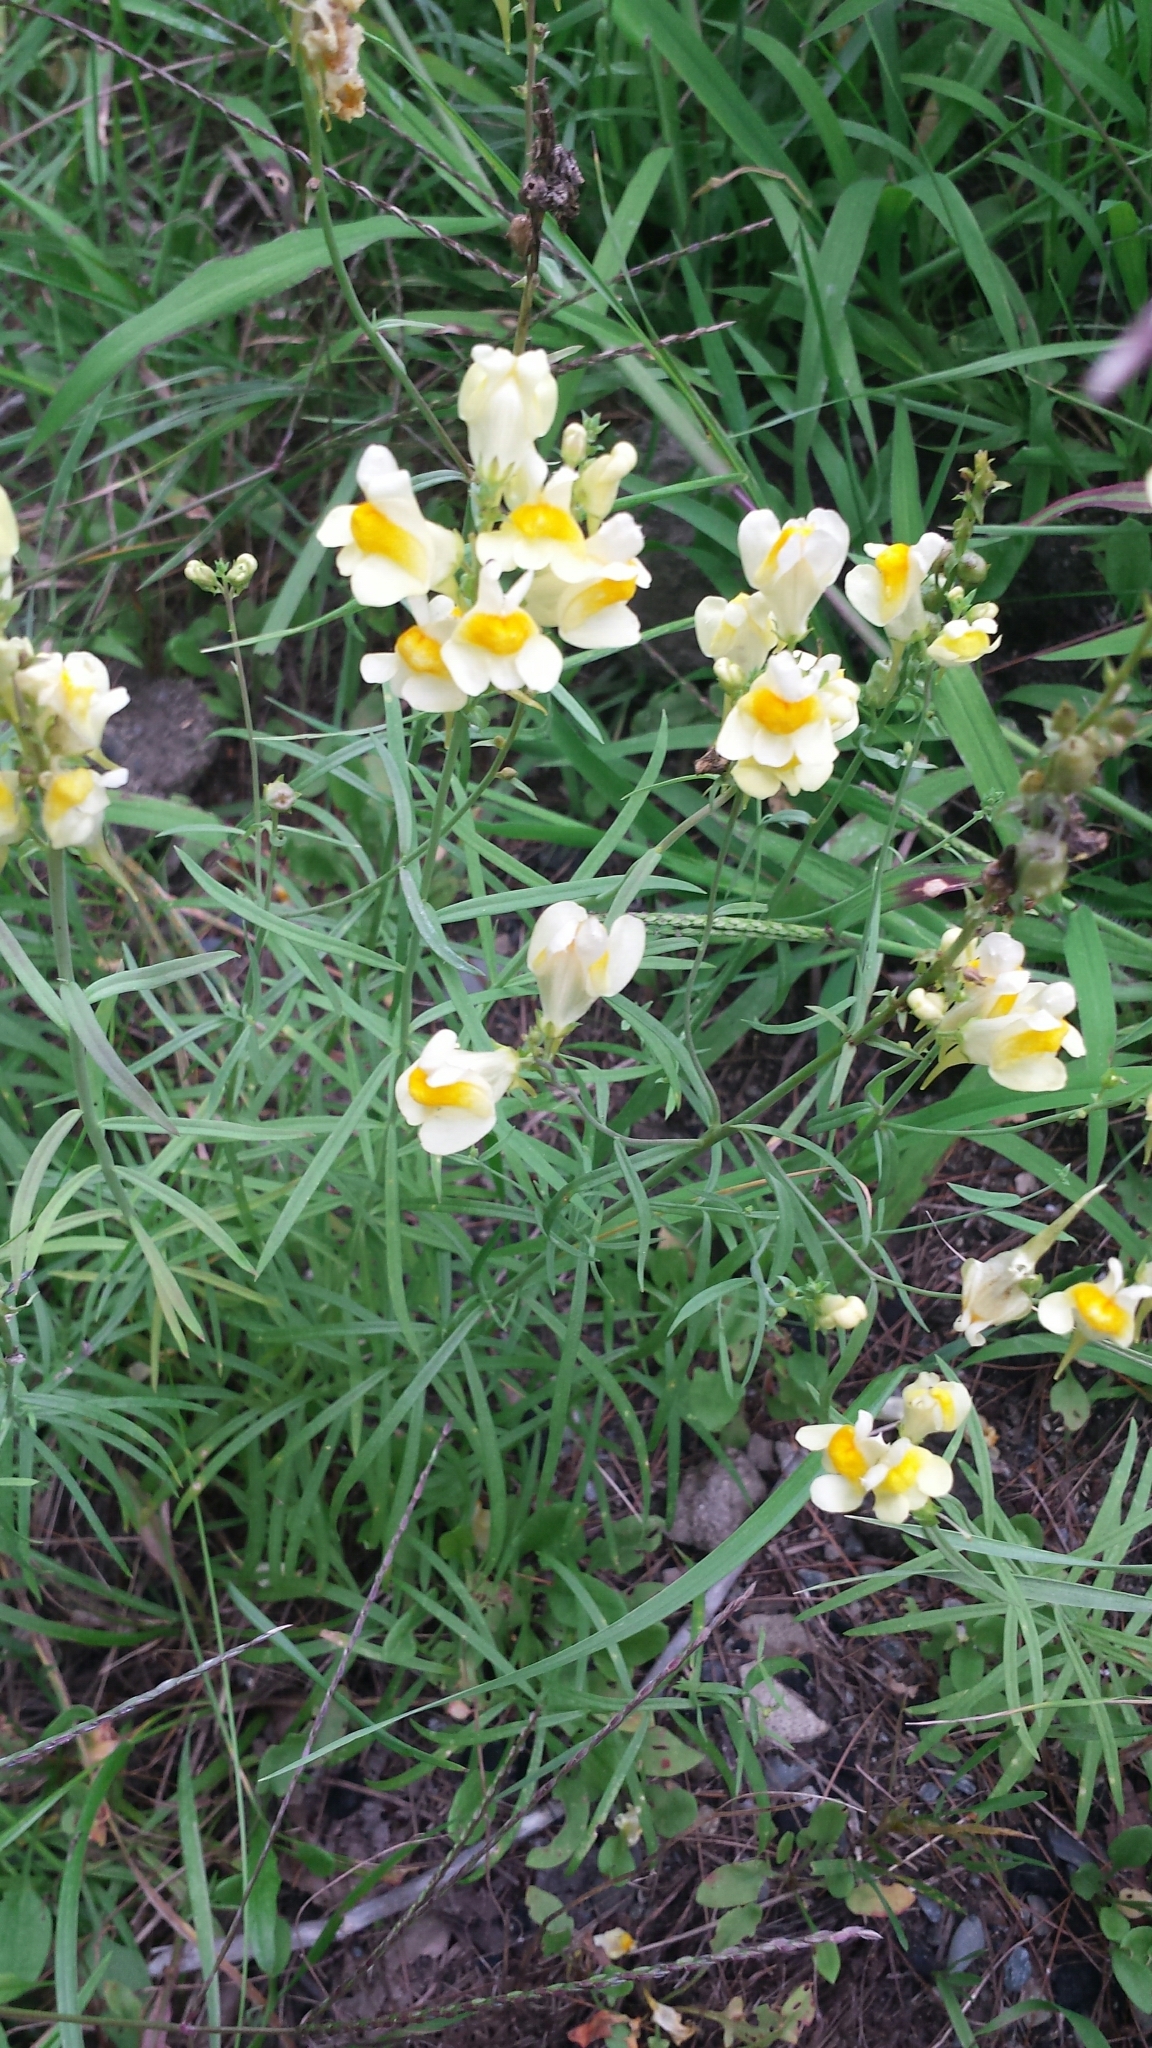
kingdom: Plantae
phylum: Tracheophyta
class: Magnoliopsida
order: Lamiales
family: Plantaginaceae
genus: Linaria
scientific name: Linaria vulgaris
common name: Butter and eggs
